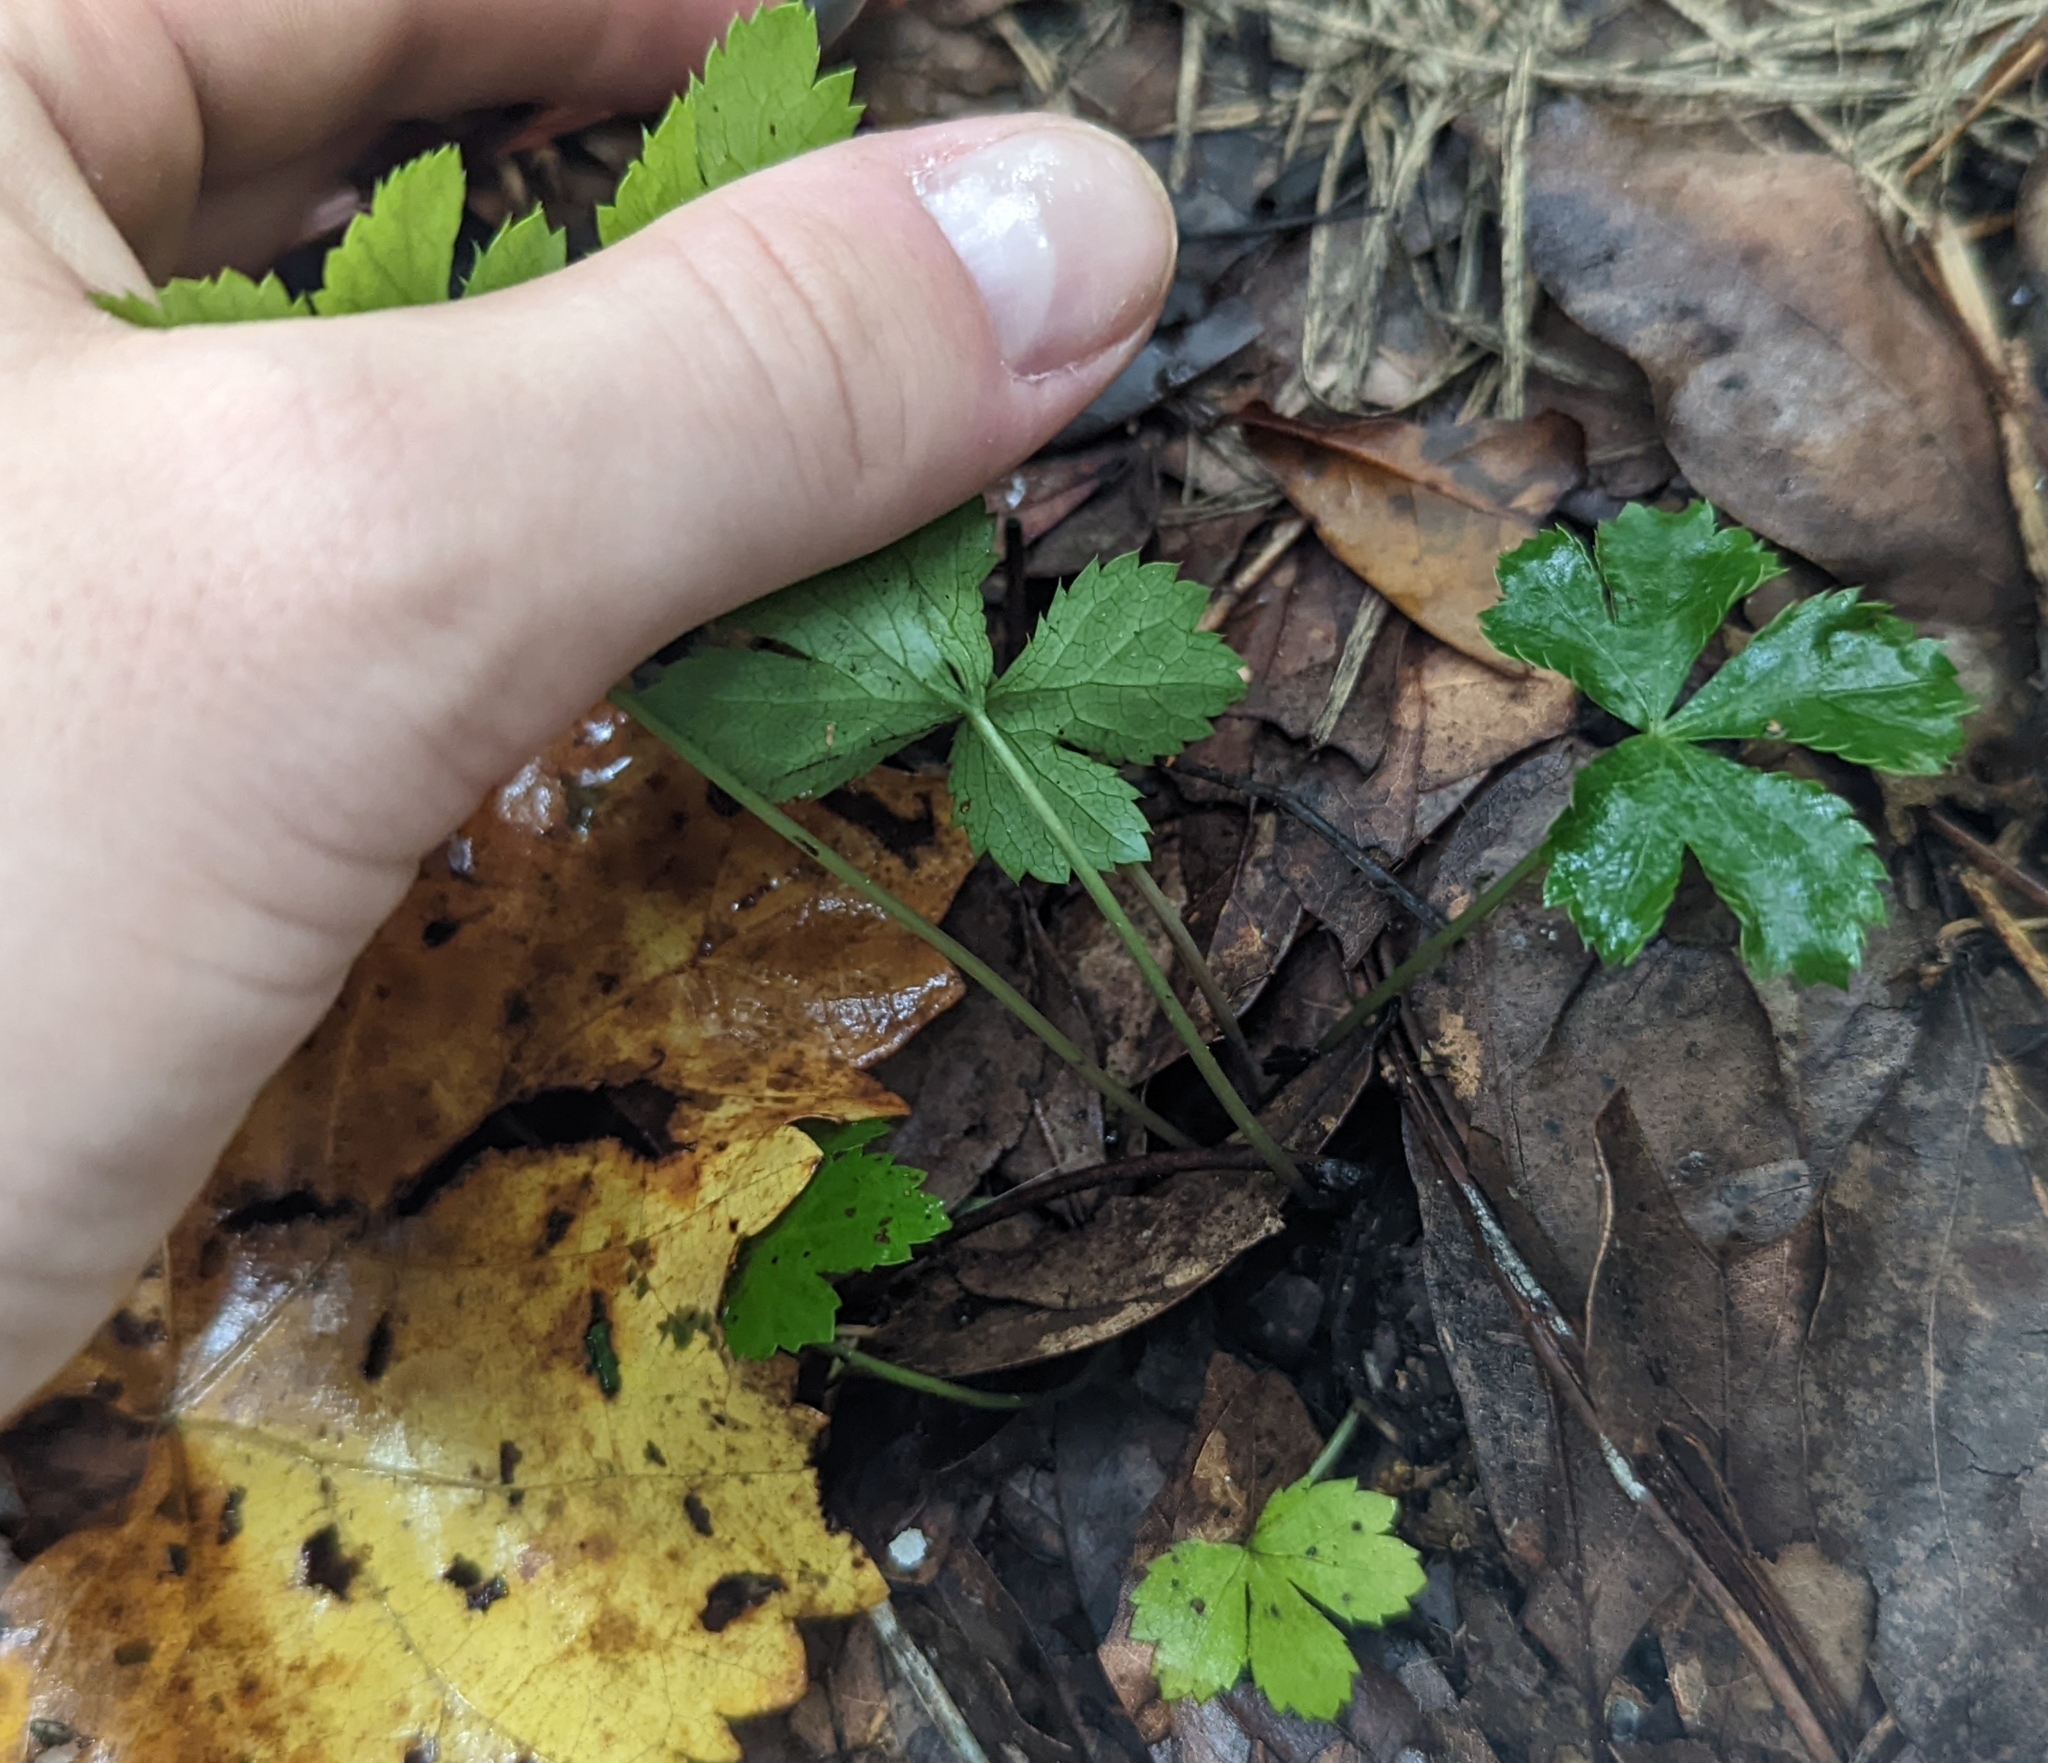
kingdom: Plantae
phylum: Tracheophyta
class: Magnoliopsida
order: Apiales
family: Apiaceae
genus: Sanicula
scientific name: Sanicula canadensis
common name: Canada sanicle
